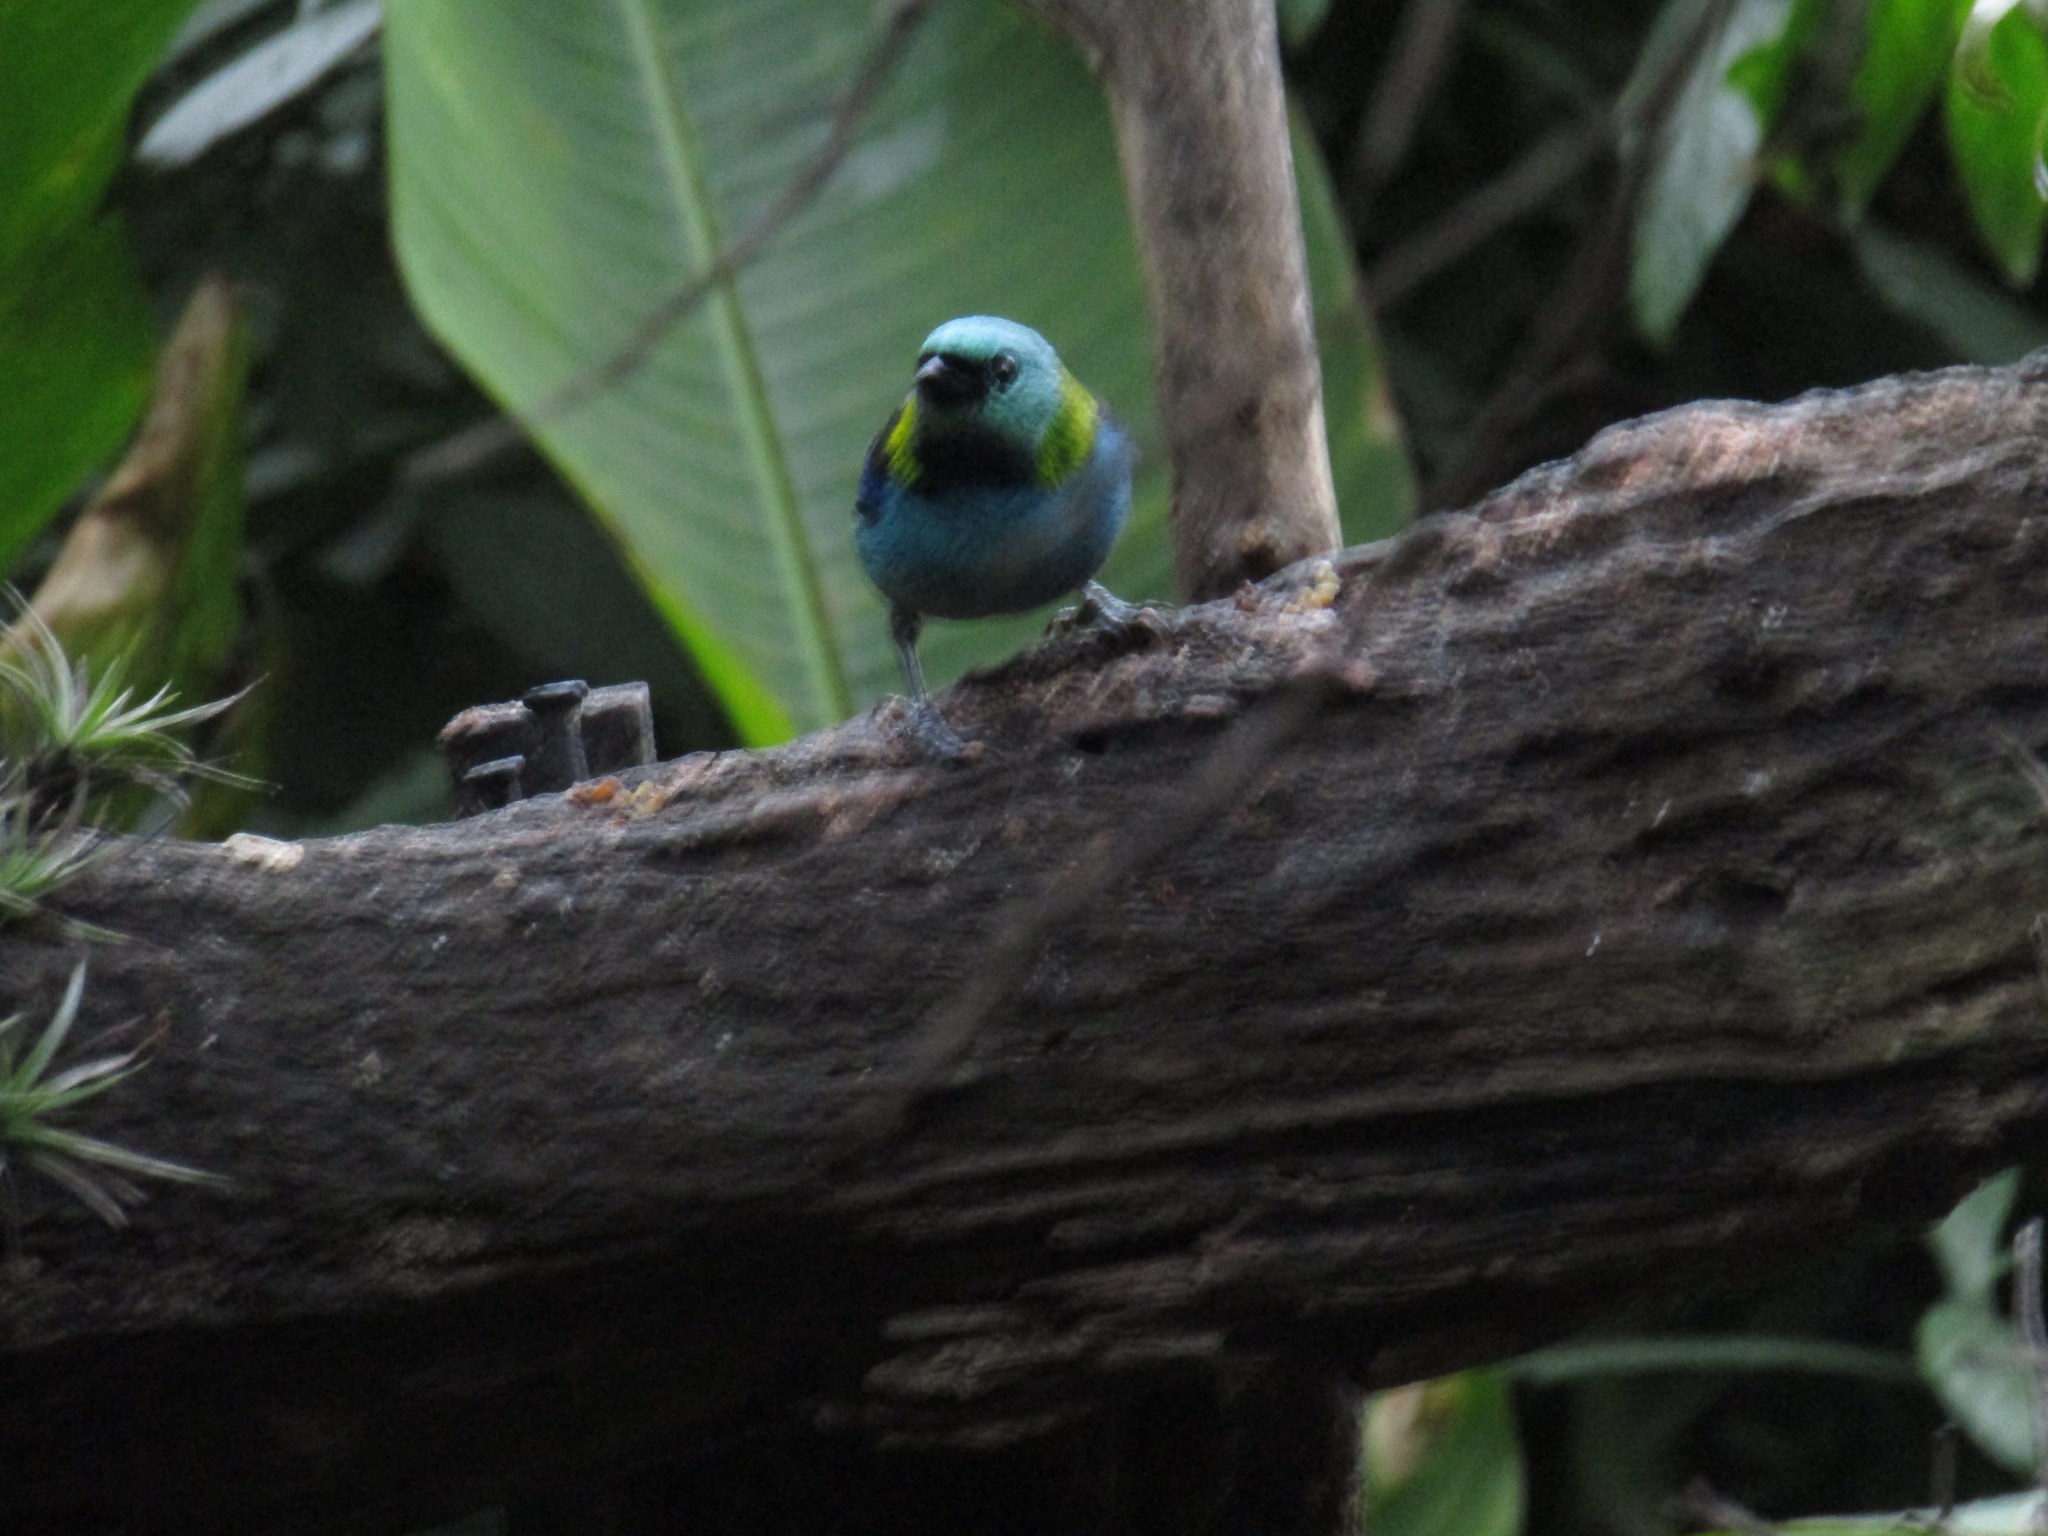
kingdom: Animalia
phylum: Chordata
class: Aves
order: Passeriformes
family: Thraupidae
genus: Tangara
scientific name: Tangara seledon
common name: Green-headed tanager
